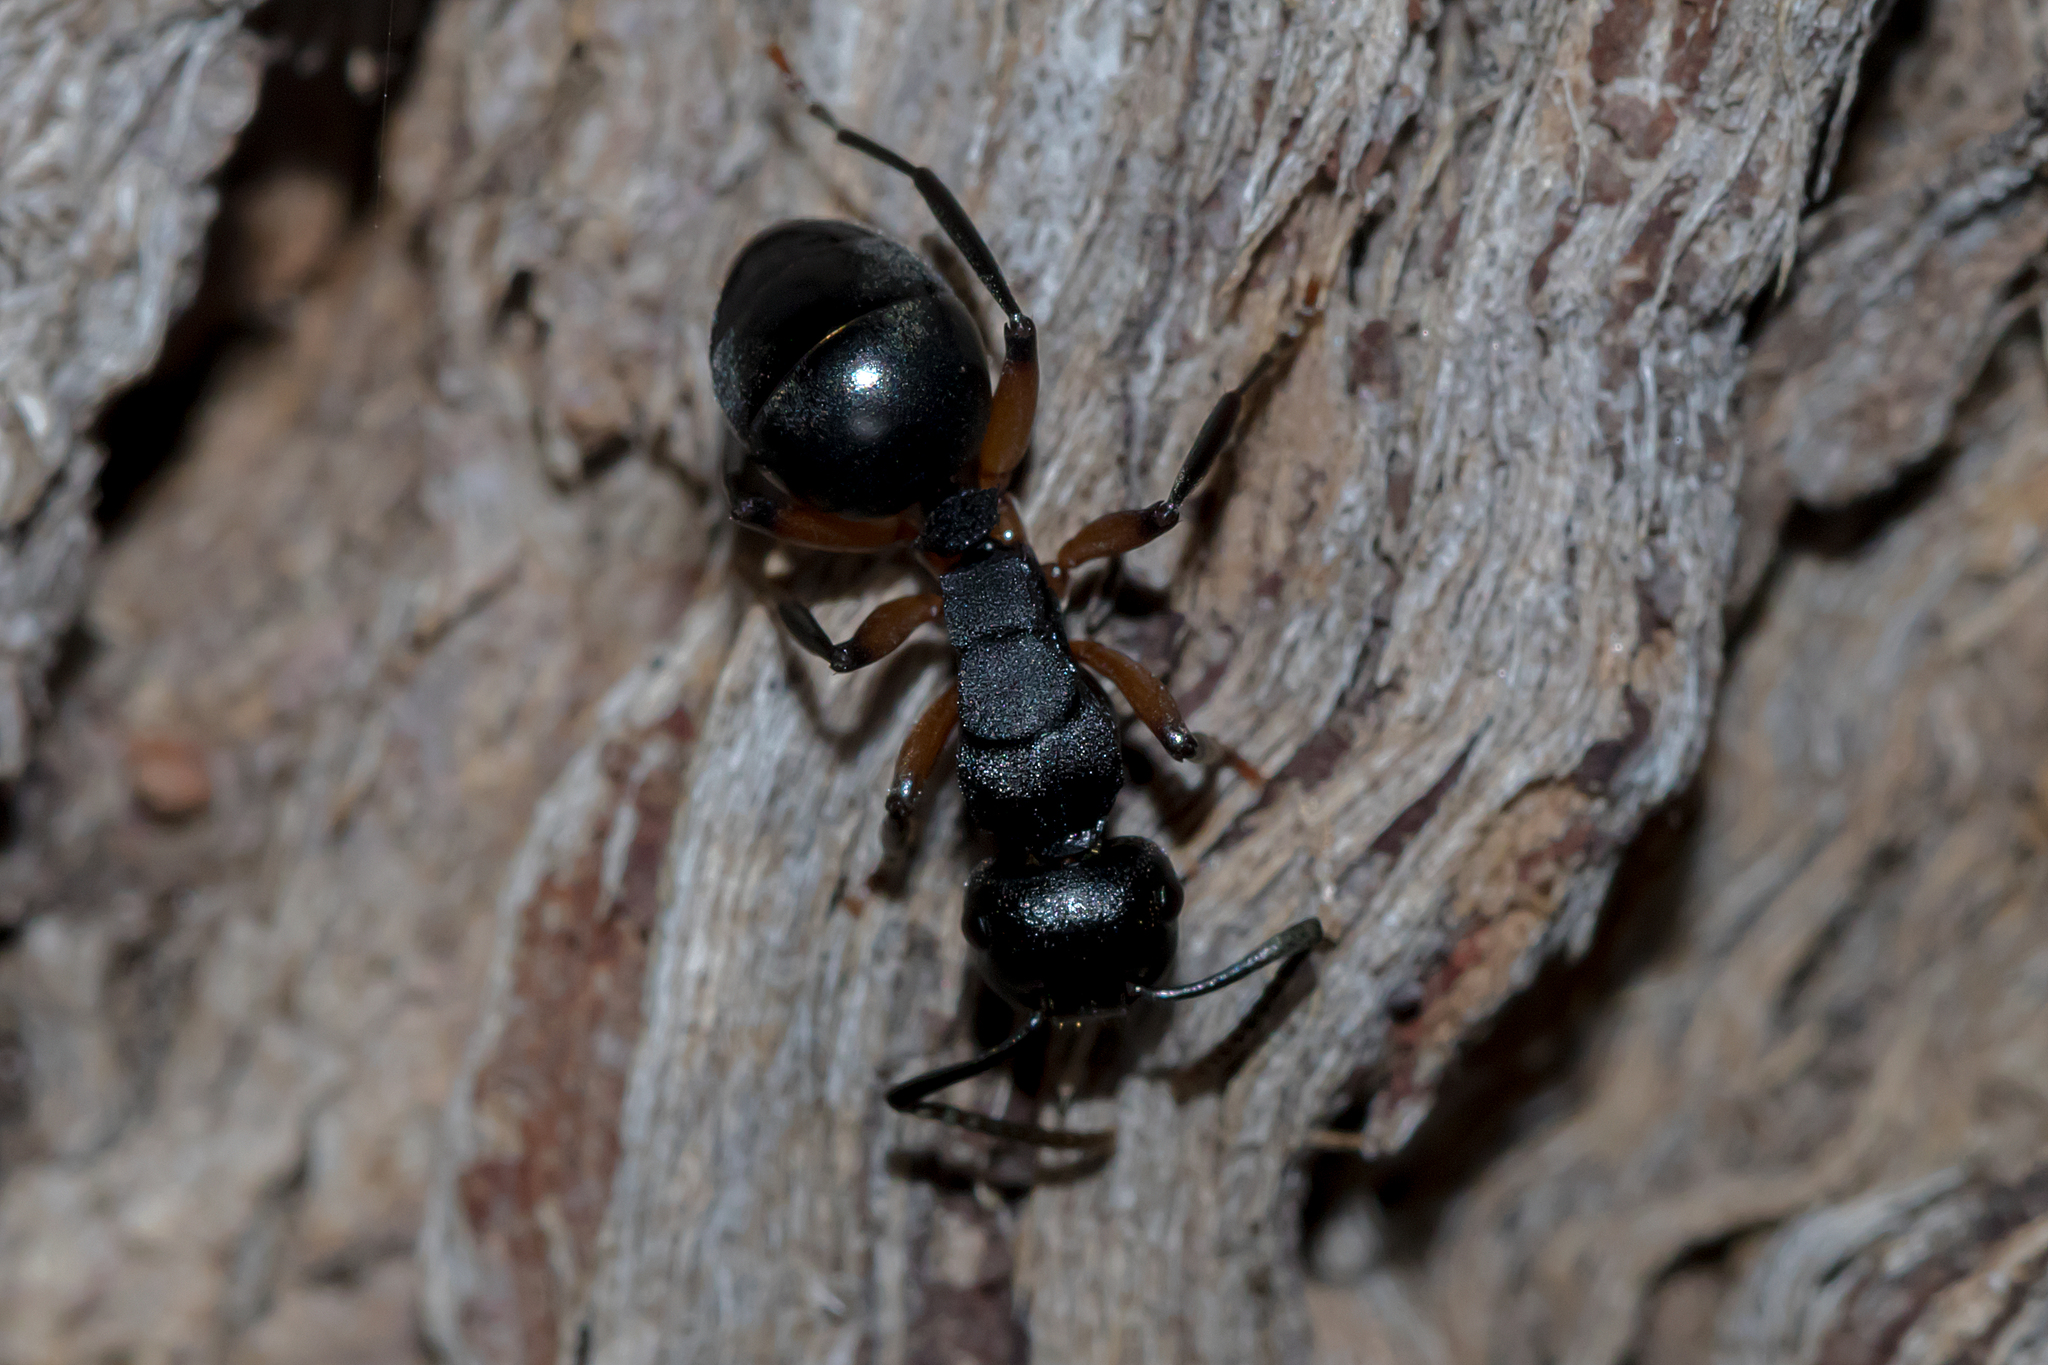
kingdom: Animalia
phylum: Arthropoda
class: Insecta
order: Hymenoptera
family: Formicidae
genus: Polyrhachis
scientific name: Polyrhachis femorata
